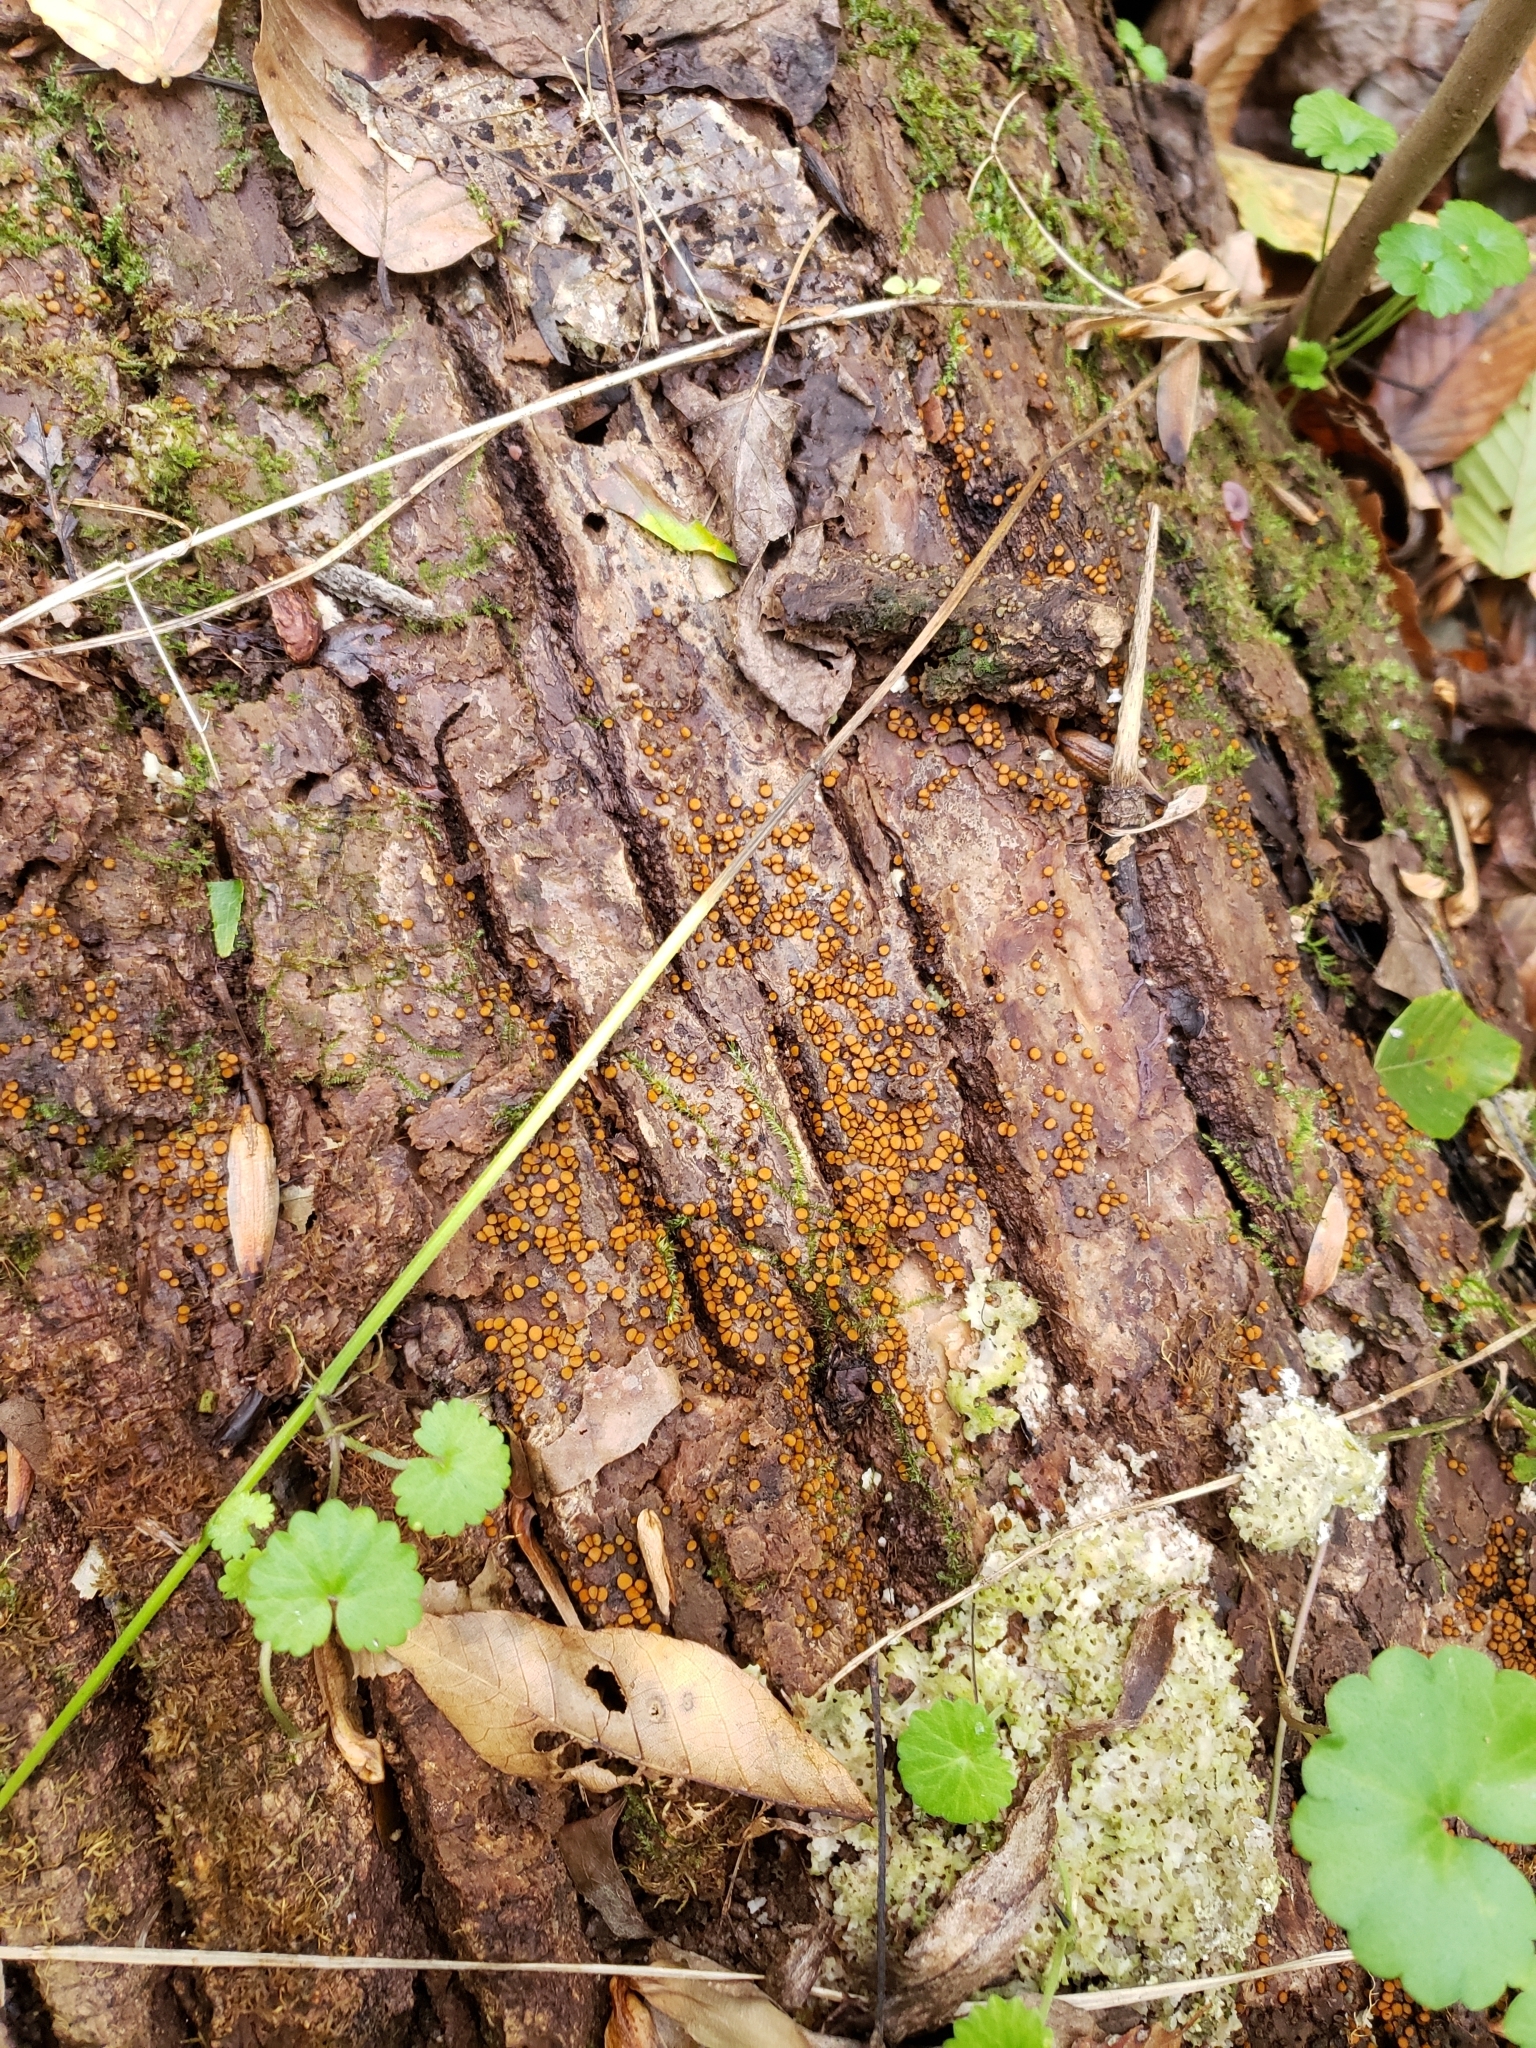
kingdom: Fungi
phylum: Ascomycota
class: Pezizomycetes
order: Pezizales
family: Pyronemataceae
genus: Scutellinia
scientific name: Scutellinia setosa
